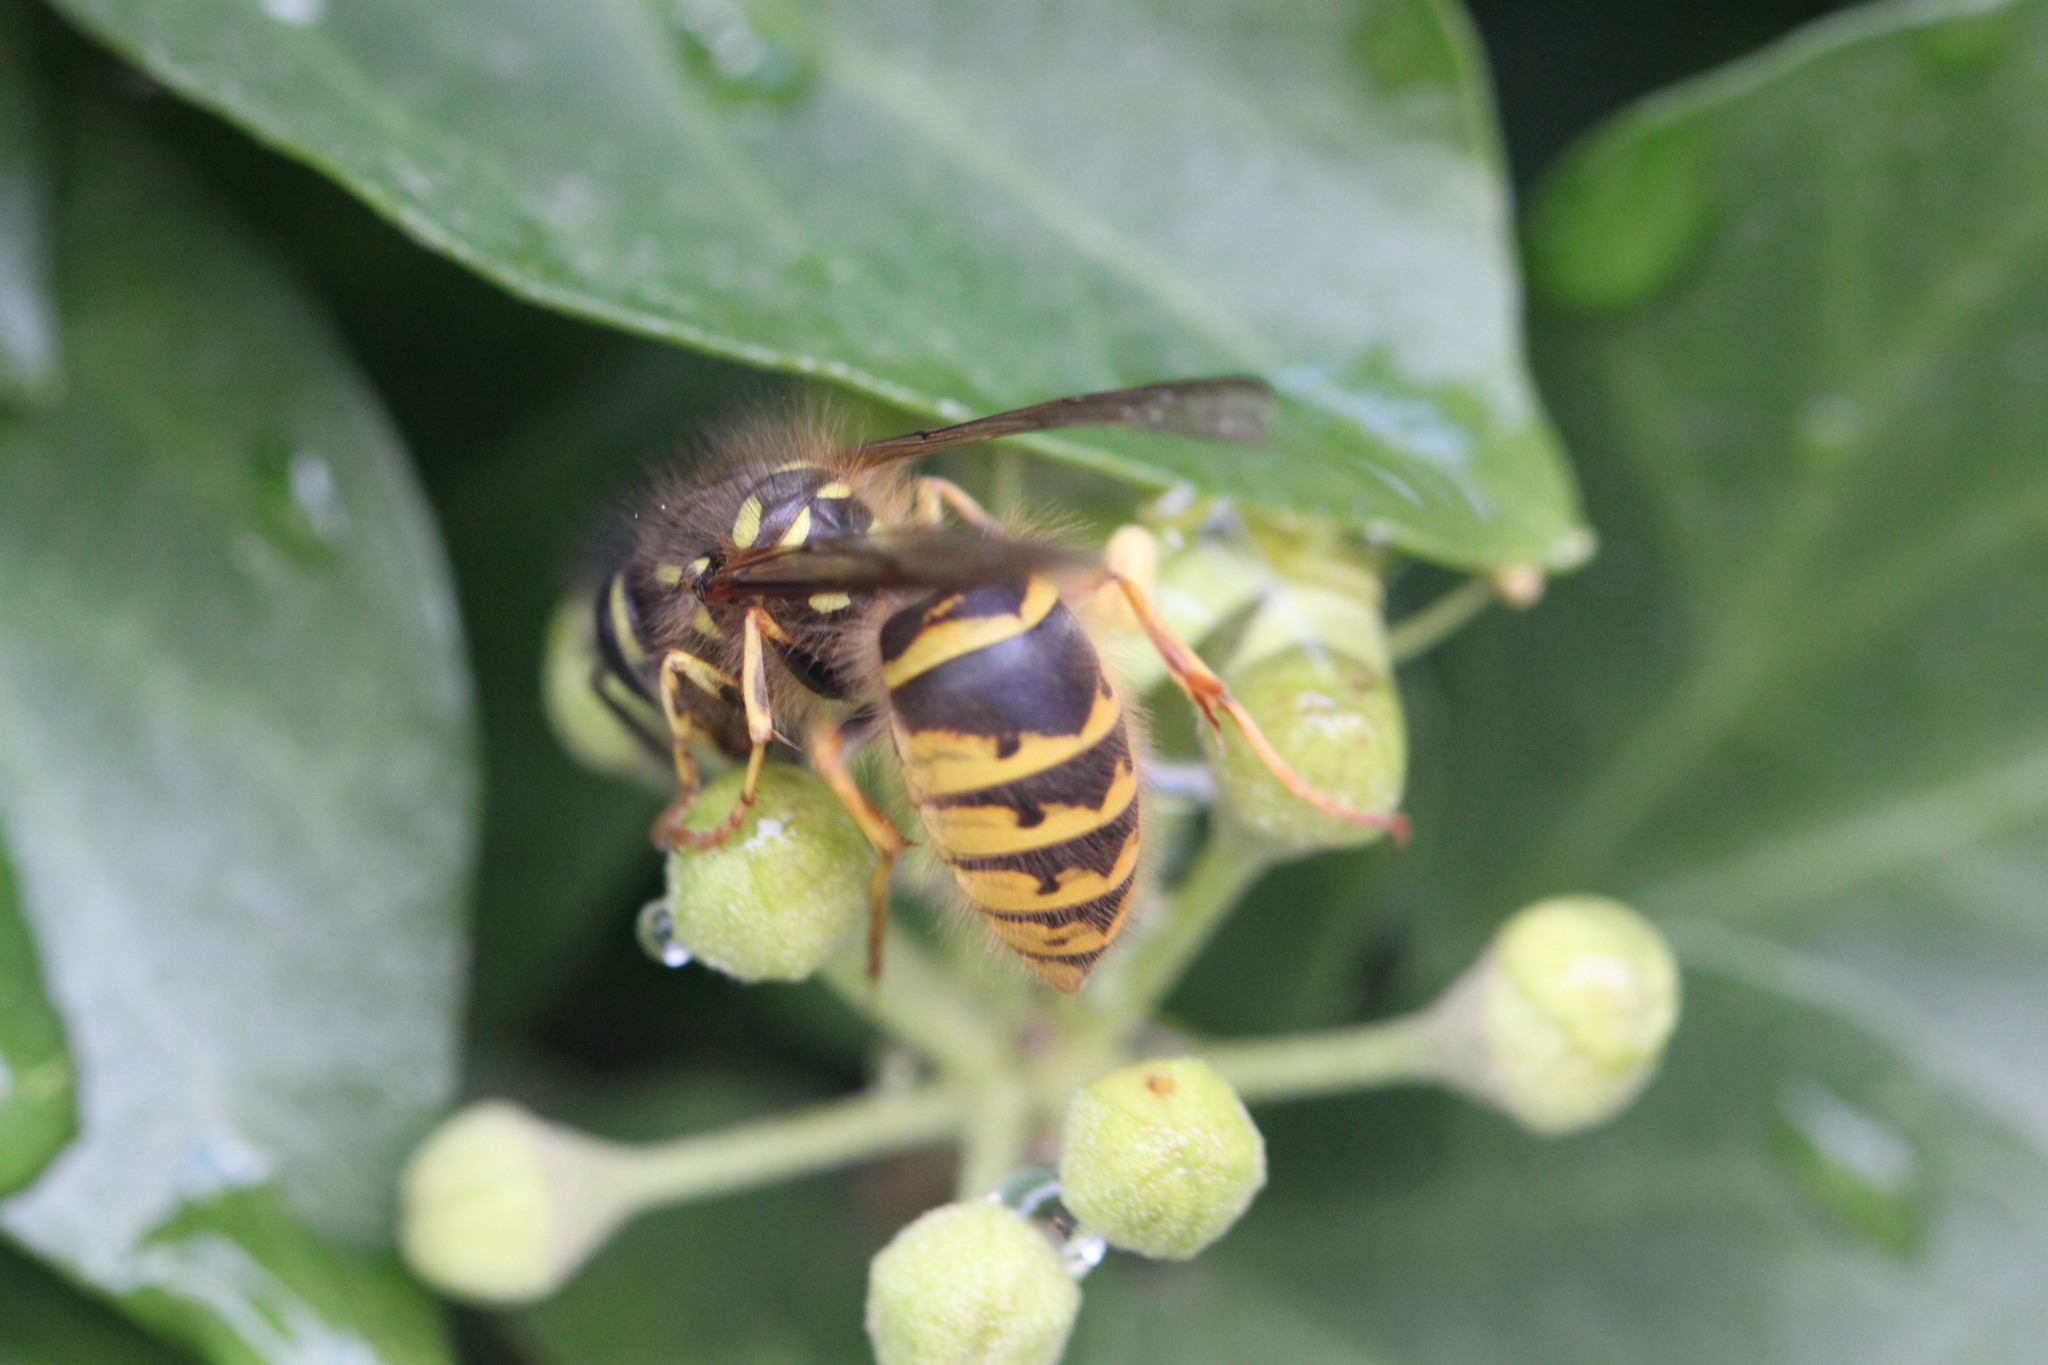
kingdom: Animalia
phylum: Arthropoda
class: Insecta
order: Hymenoptera
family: Vespidae
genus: Vespula
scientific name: Vespula vulgaris
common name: Common wasp
